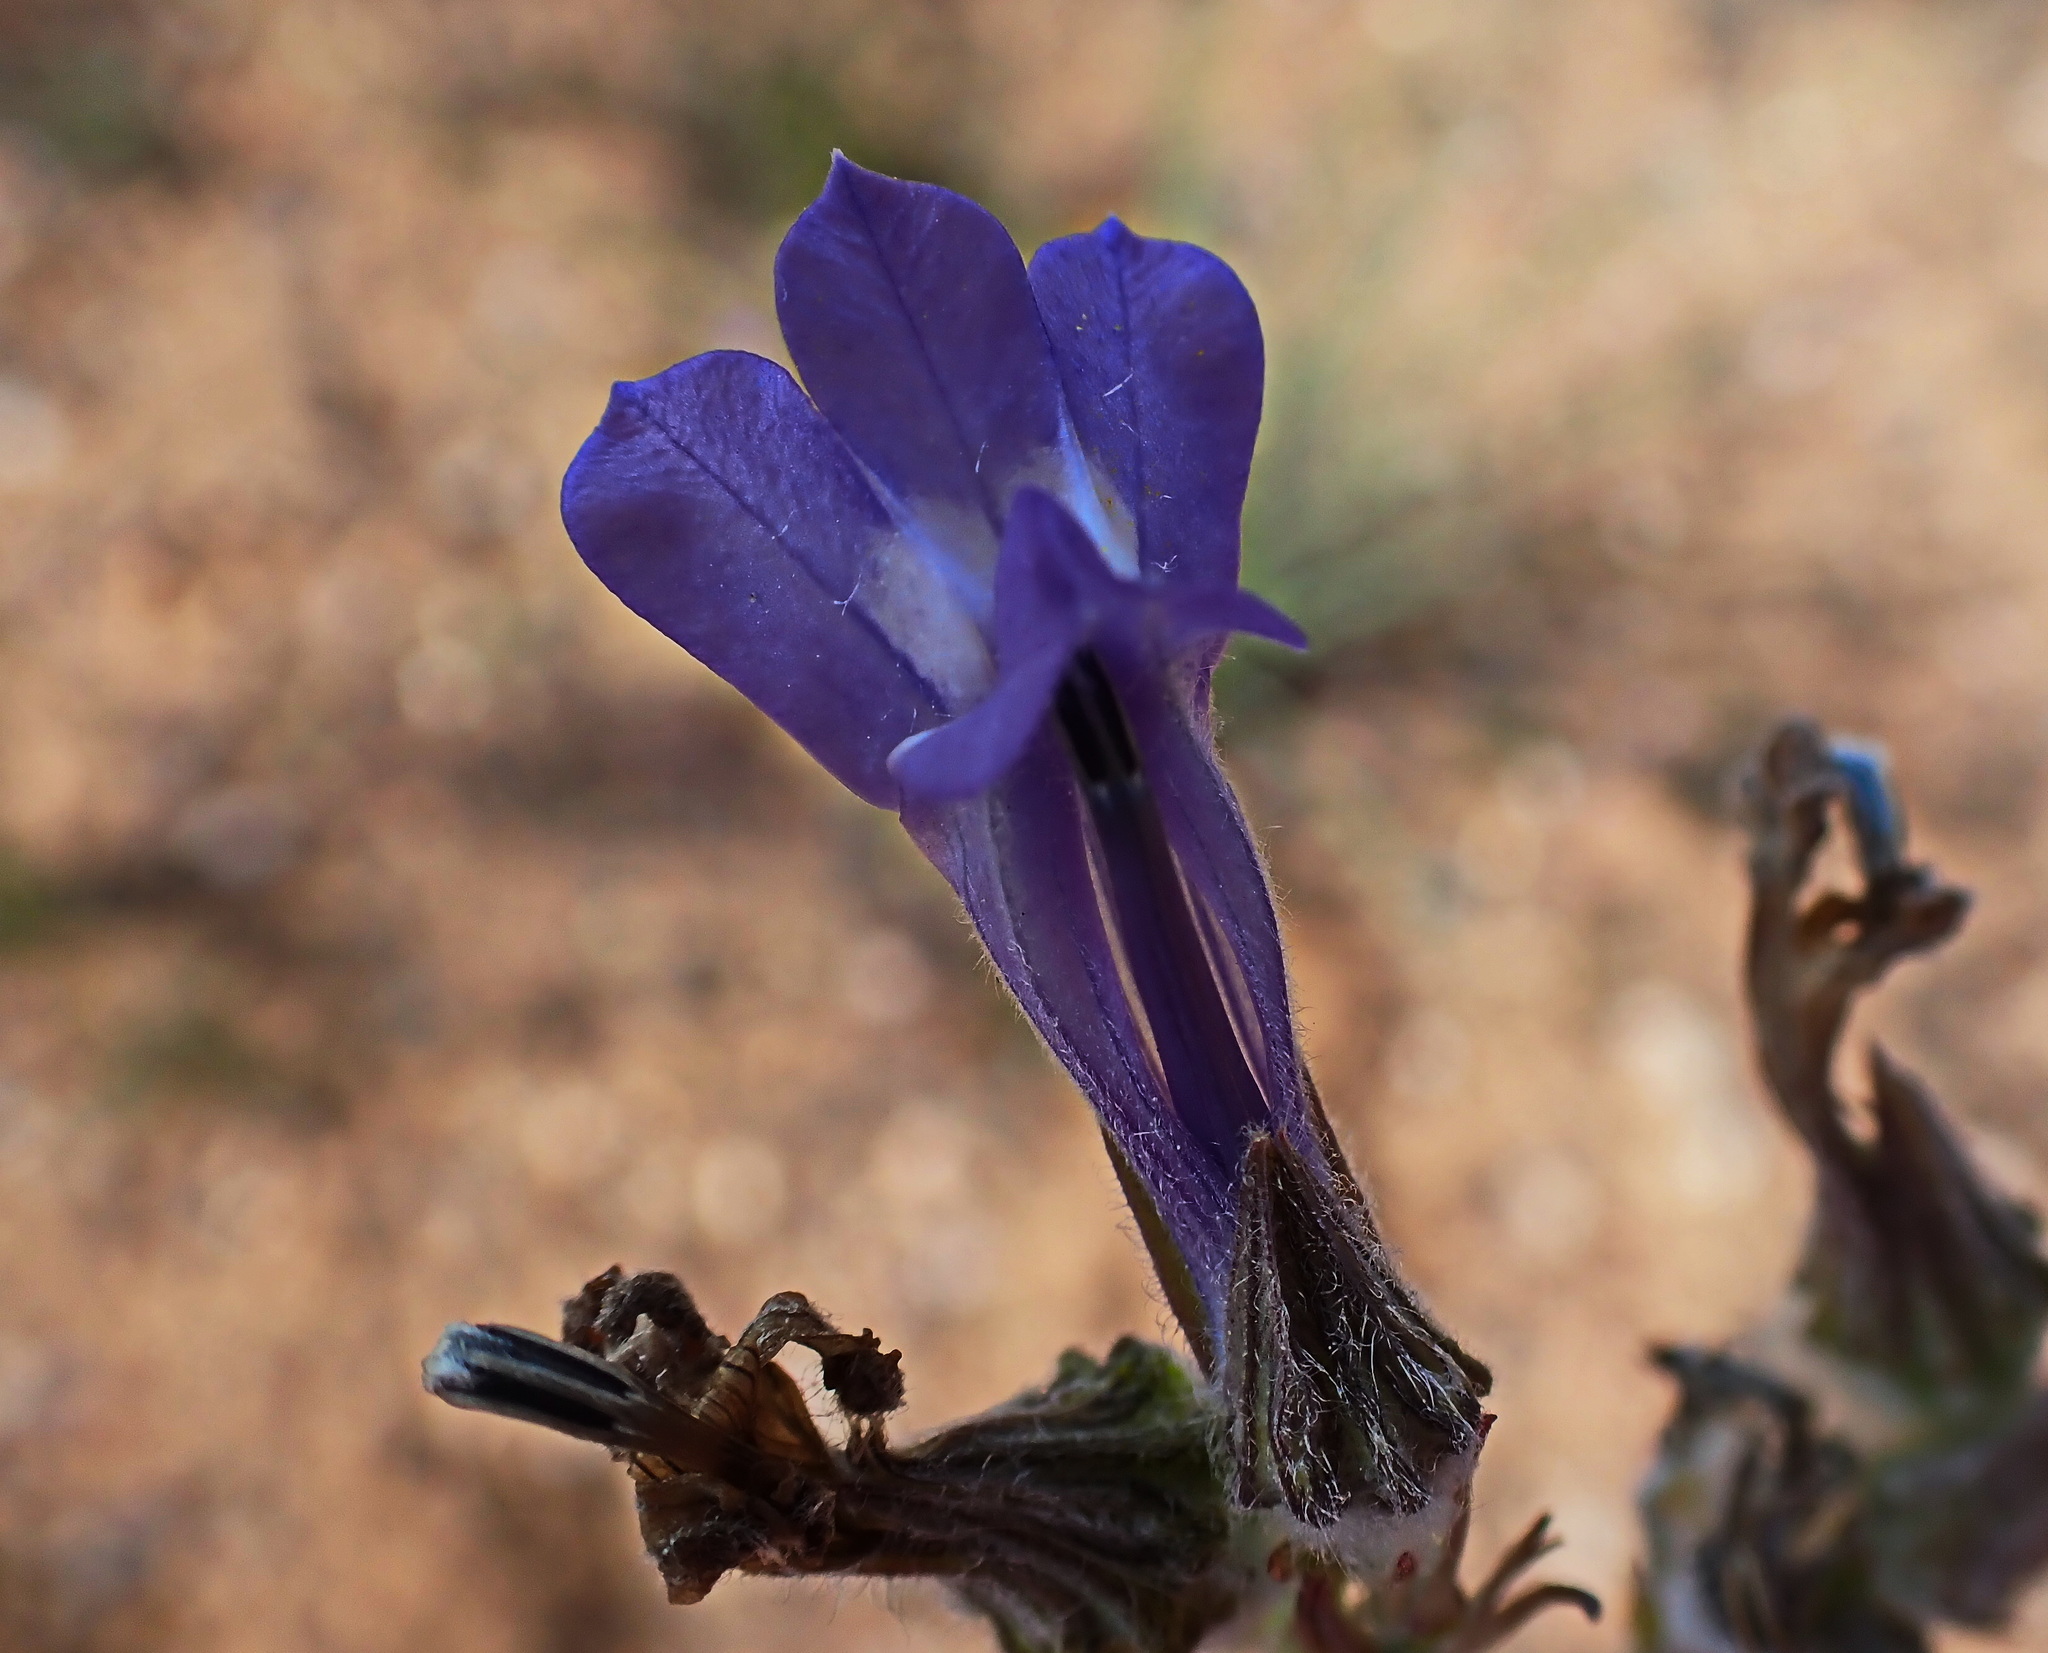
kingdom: Plantae
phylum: Tracheophyta
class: Magnoliopsida
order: Asterales
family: Campanulaceae
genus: Lobelia
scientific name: Lobelia linearis
